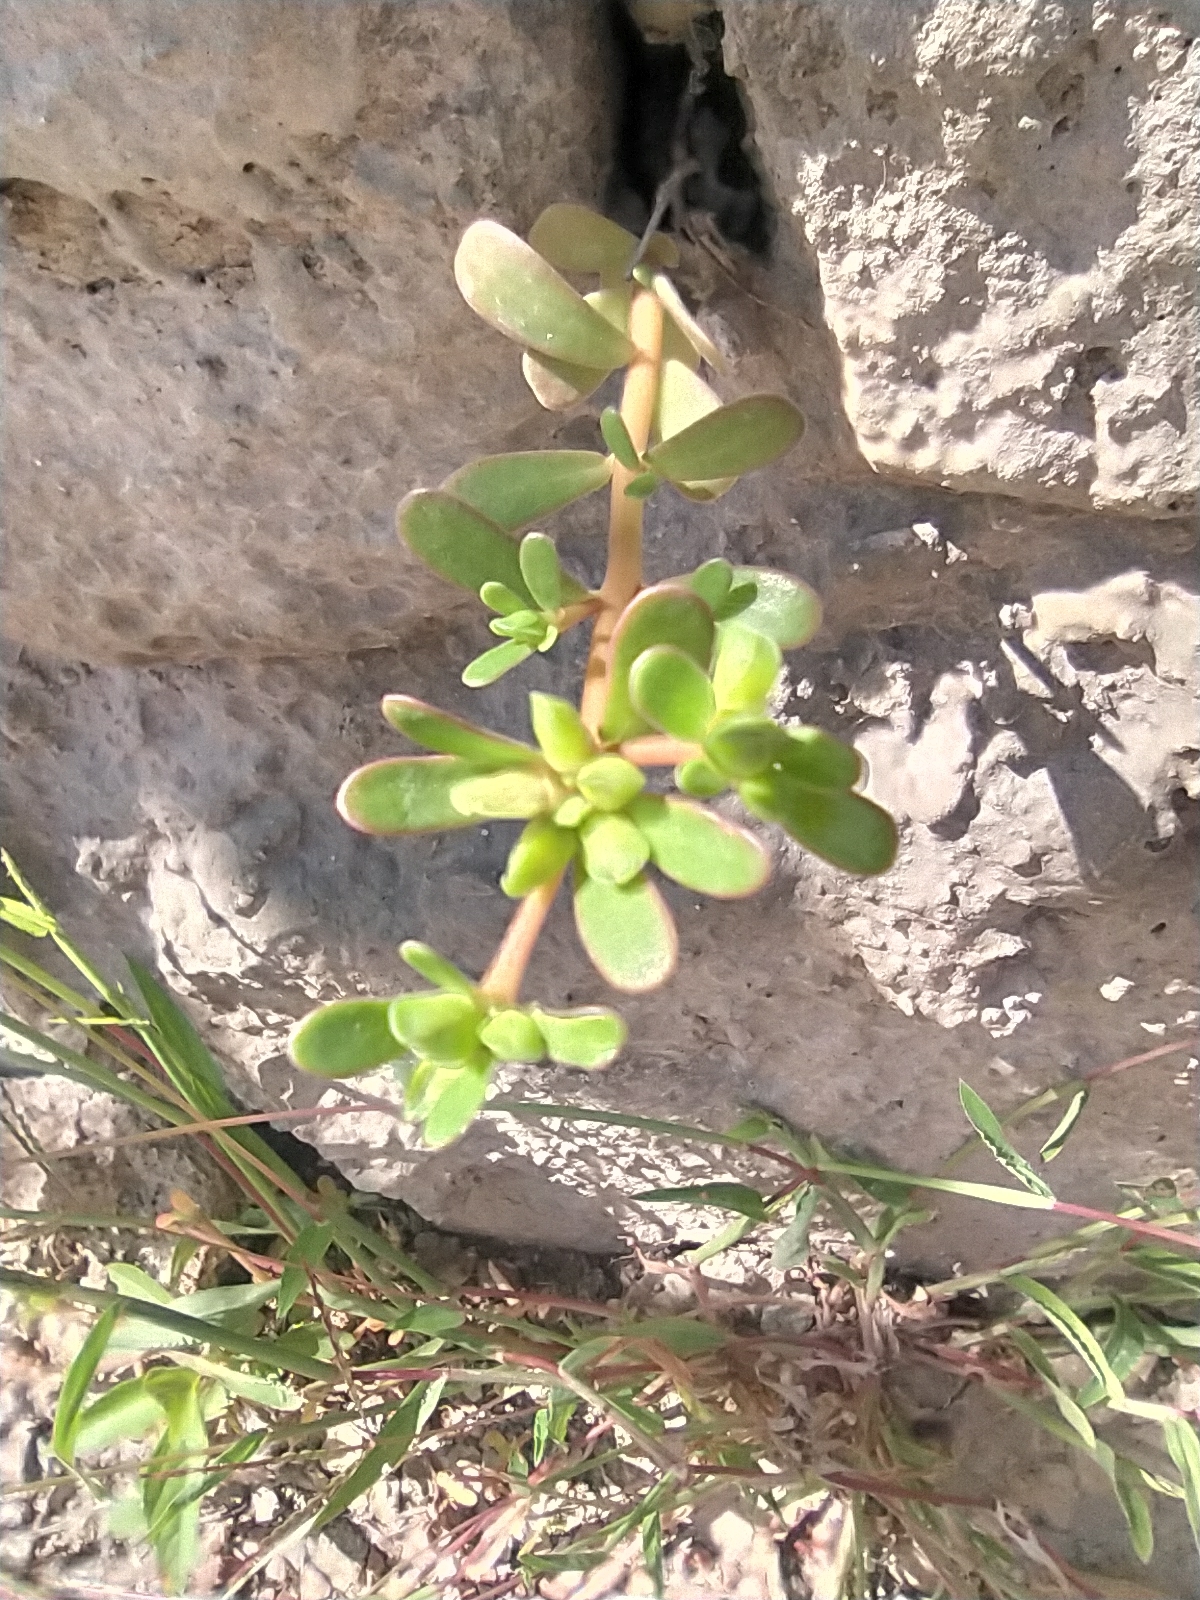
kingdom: Plantae
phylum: Tracheophyta
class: Magnoliopsida
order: Caryophyllales
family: Portulacaceae
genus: Portulaca
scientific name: Portulaca oleracea
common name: Common purslane
